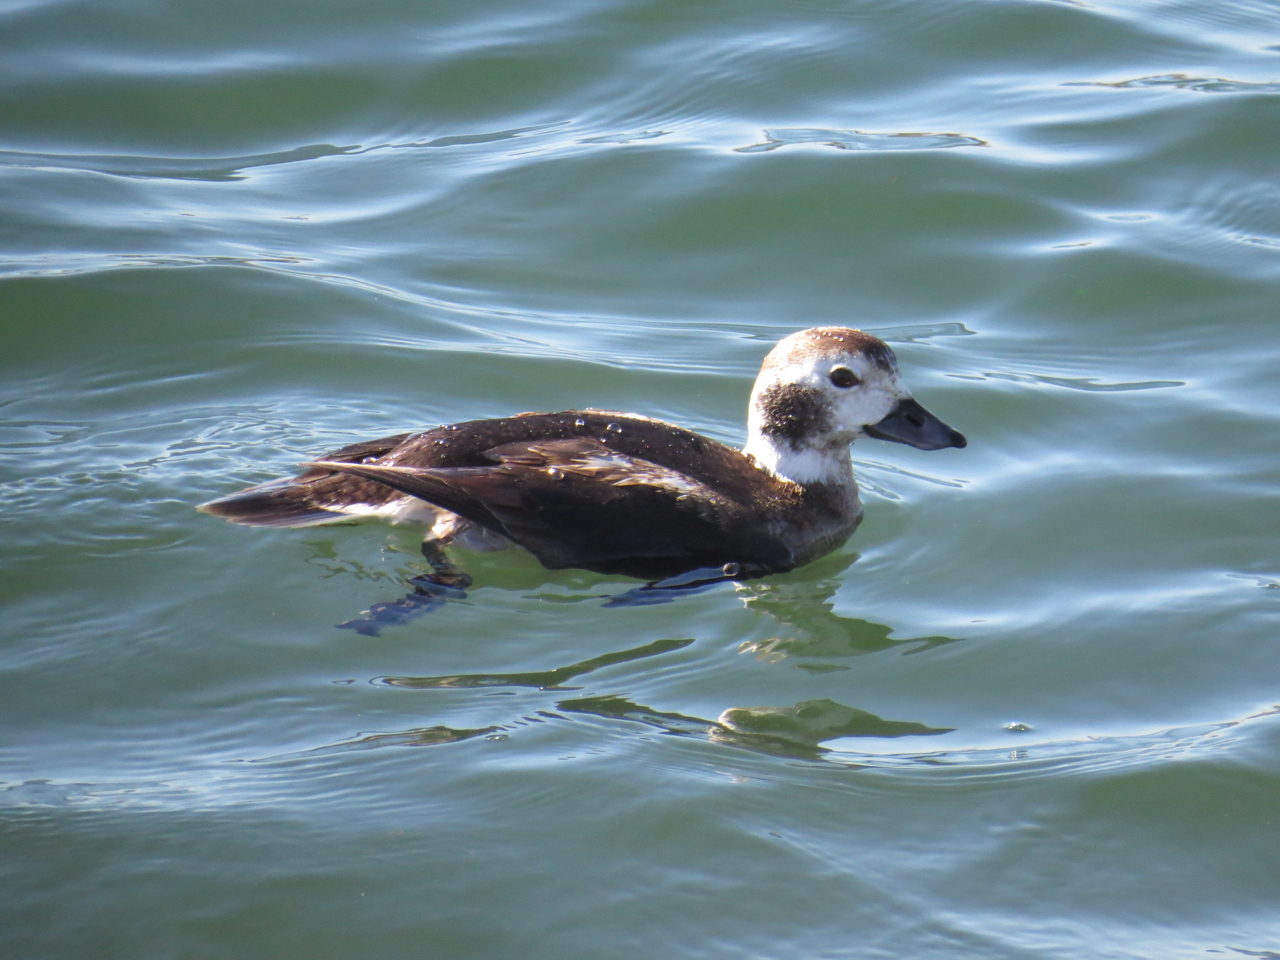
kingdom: Animalia
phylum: Chordata
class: Aves
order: Anseriformes
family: Anatidae
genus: Clangula
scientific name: Clangula hyemalis
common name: Long-tailed duck
